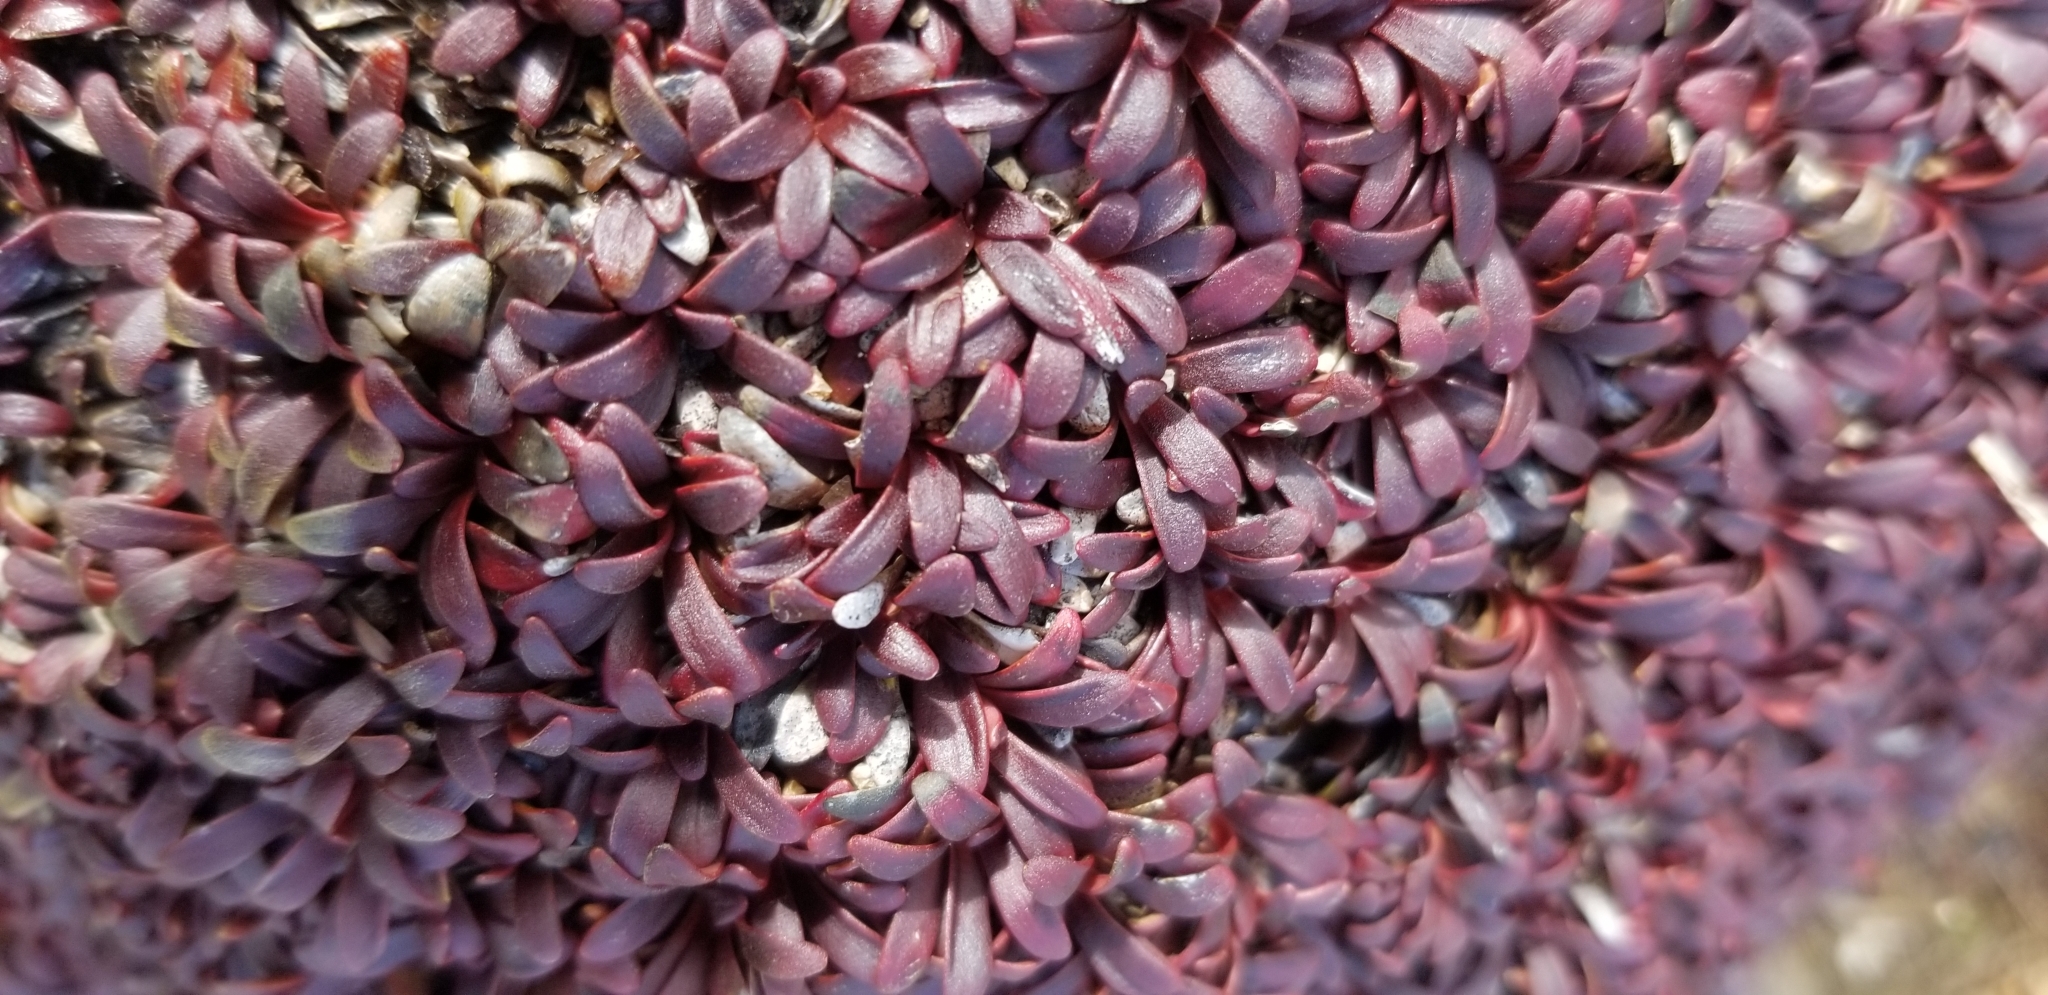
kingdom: Plantae
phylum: Tracheophyta
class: Magnoliopsida
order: Ericales
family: Diapensiaceae
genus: Diapensia
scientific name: Diapensia lapponica
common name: Diapensia
